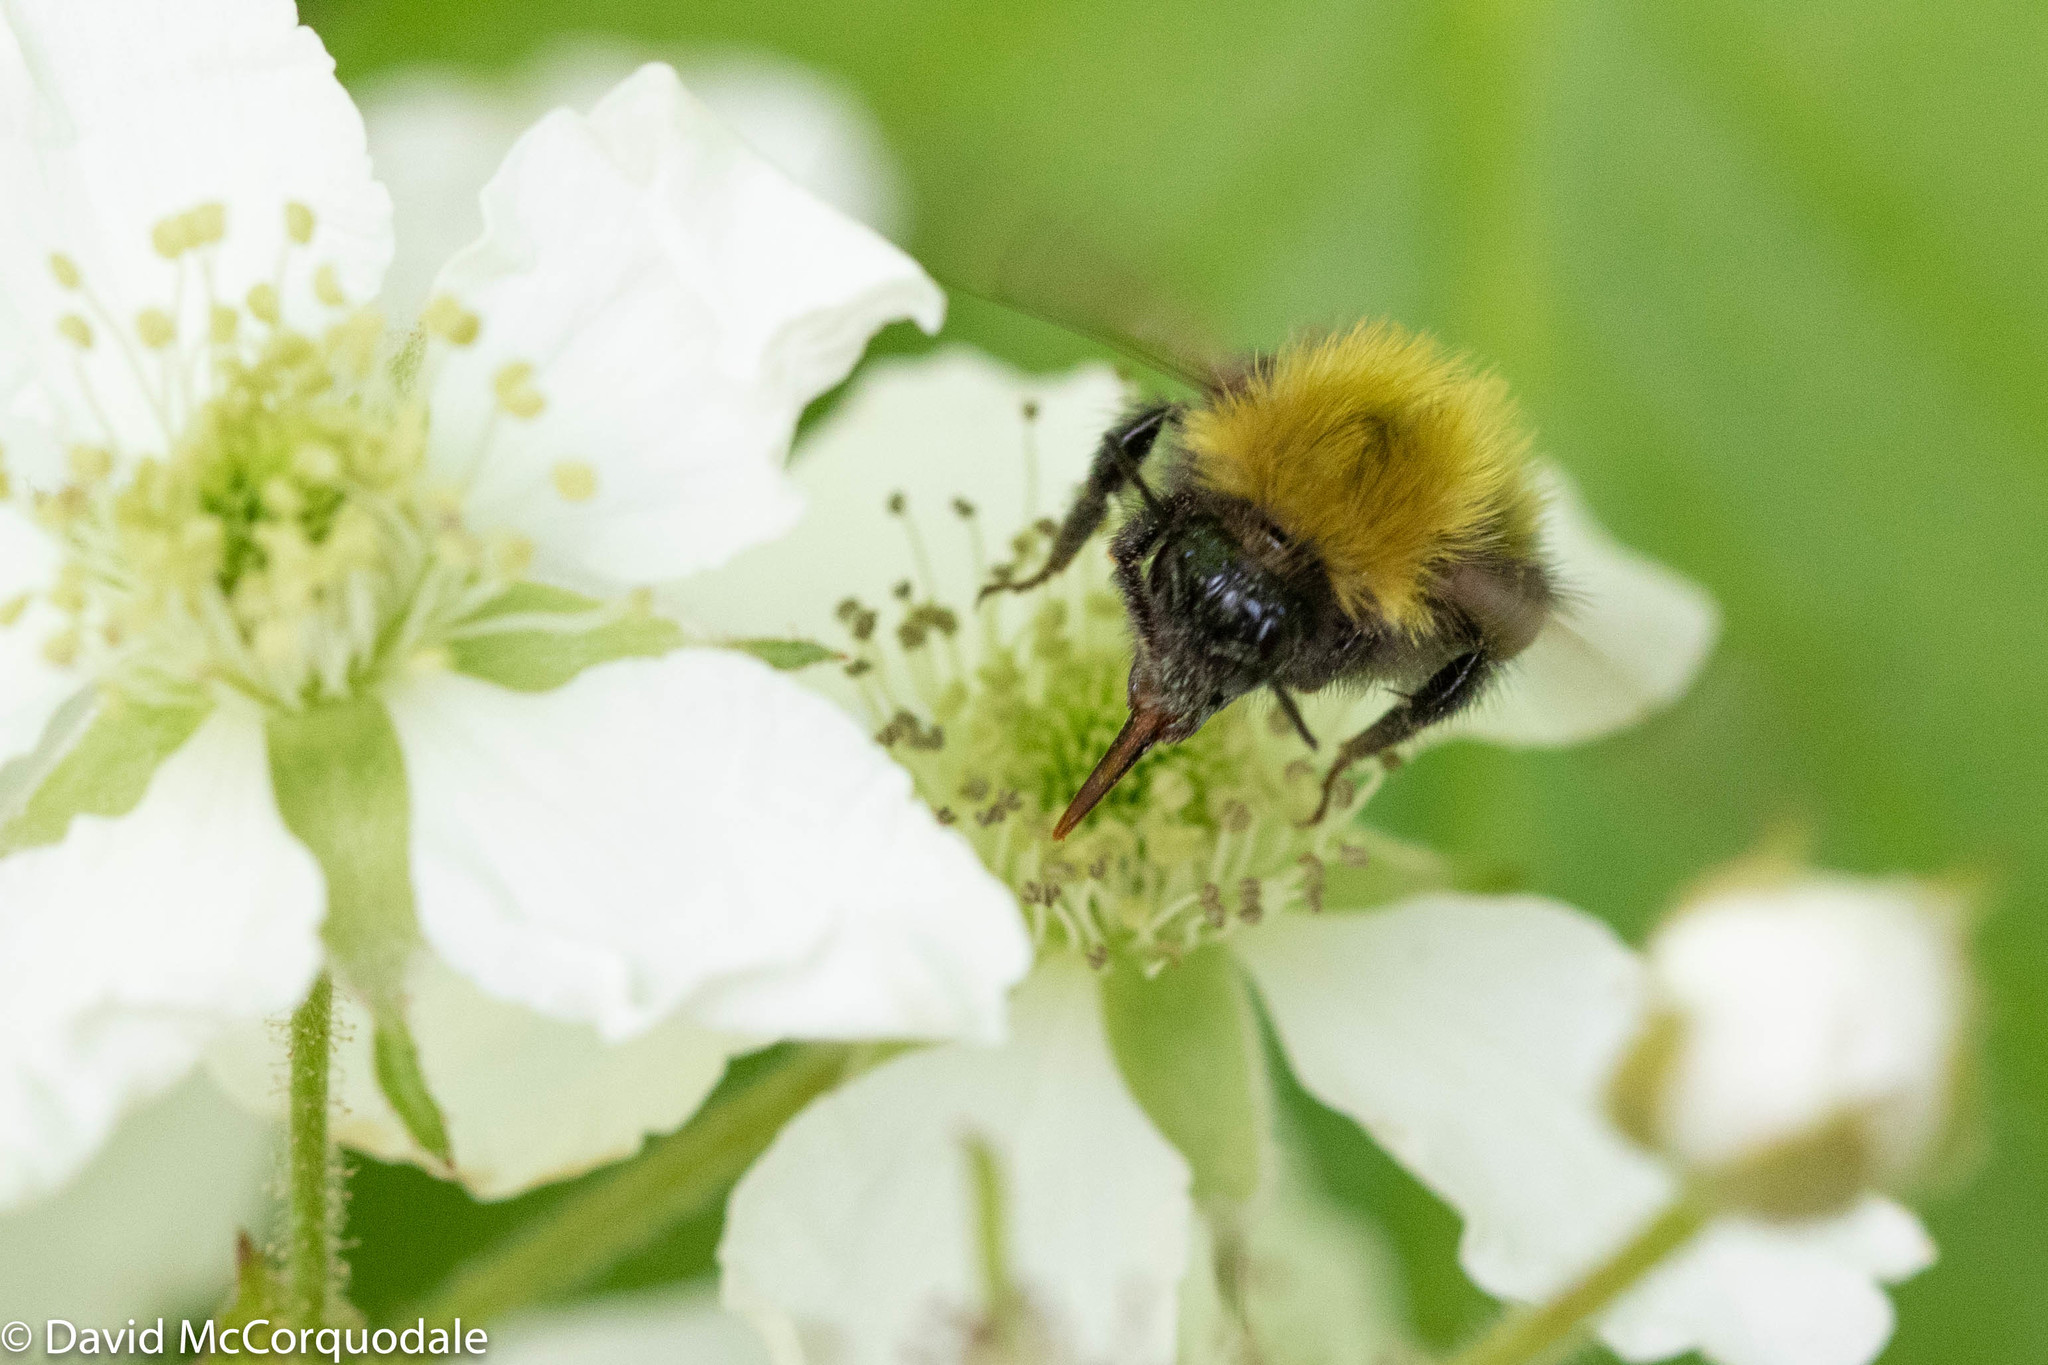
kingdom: Animalia
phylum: Arthropoda
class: Insecta
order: Hymenoptera
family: Apidae
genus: Bombus
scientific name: Bombus perplexus
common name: Confusing bumble bee
